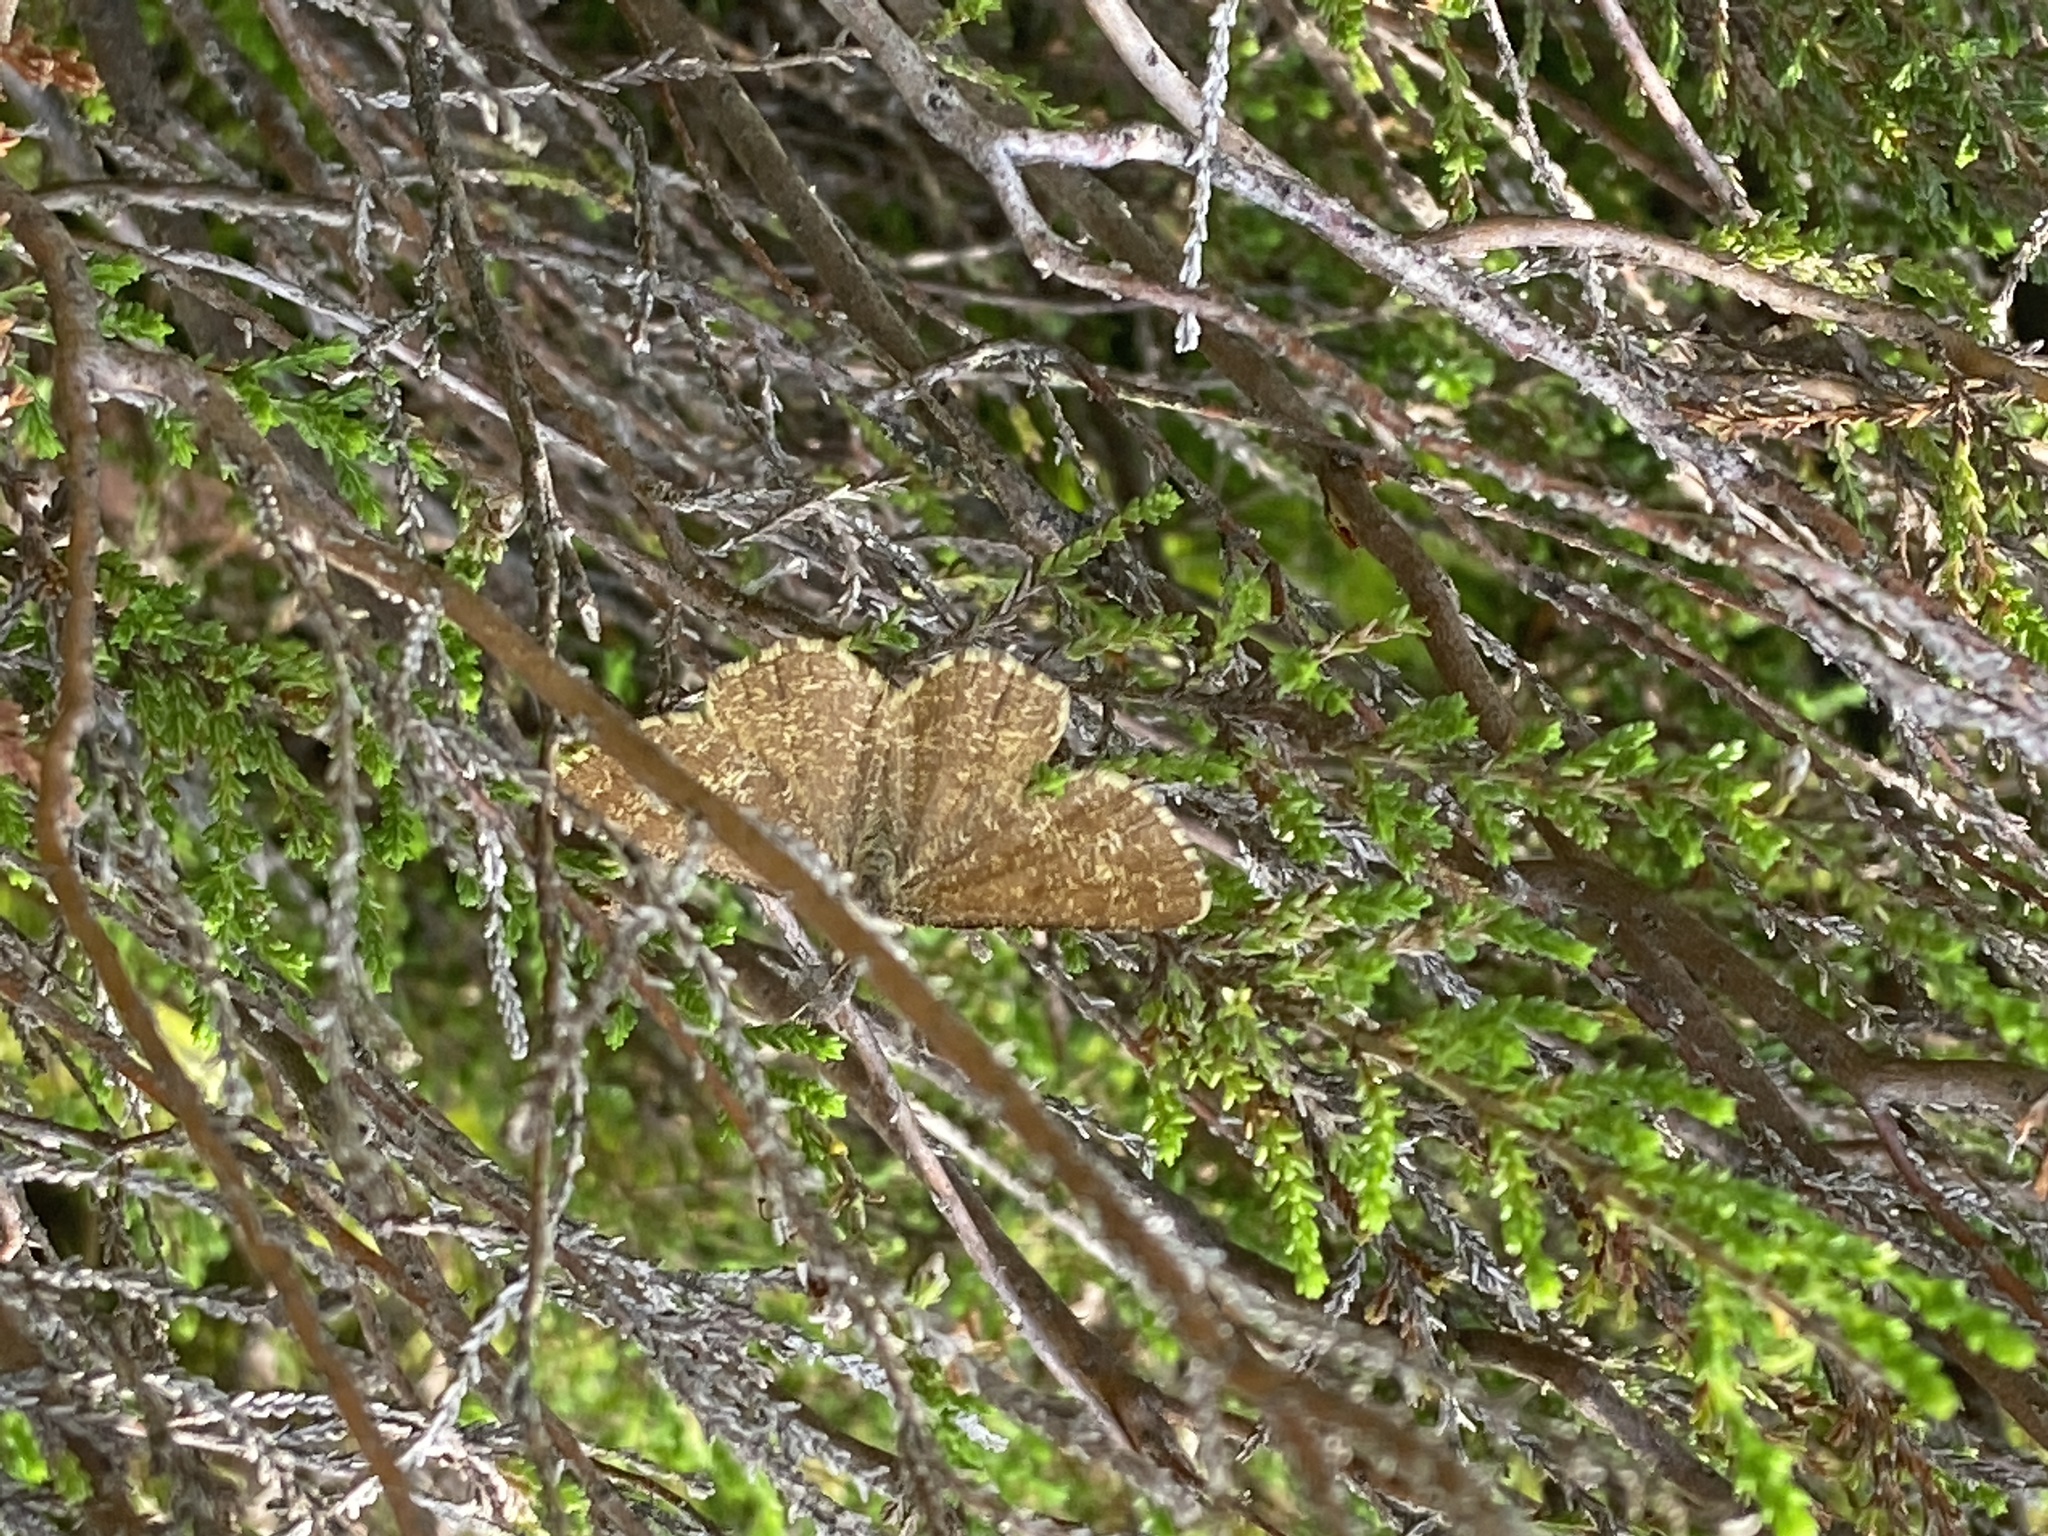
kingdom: Animalia
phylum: Arthropoda
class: Insecta
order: Lepidoptera
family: Geometridae
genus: Ematurga
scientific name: Ematurga atomaria
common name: Common heath
